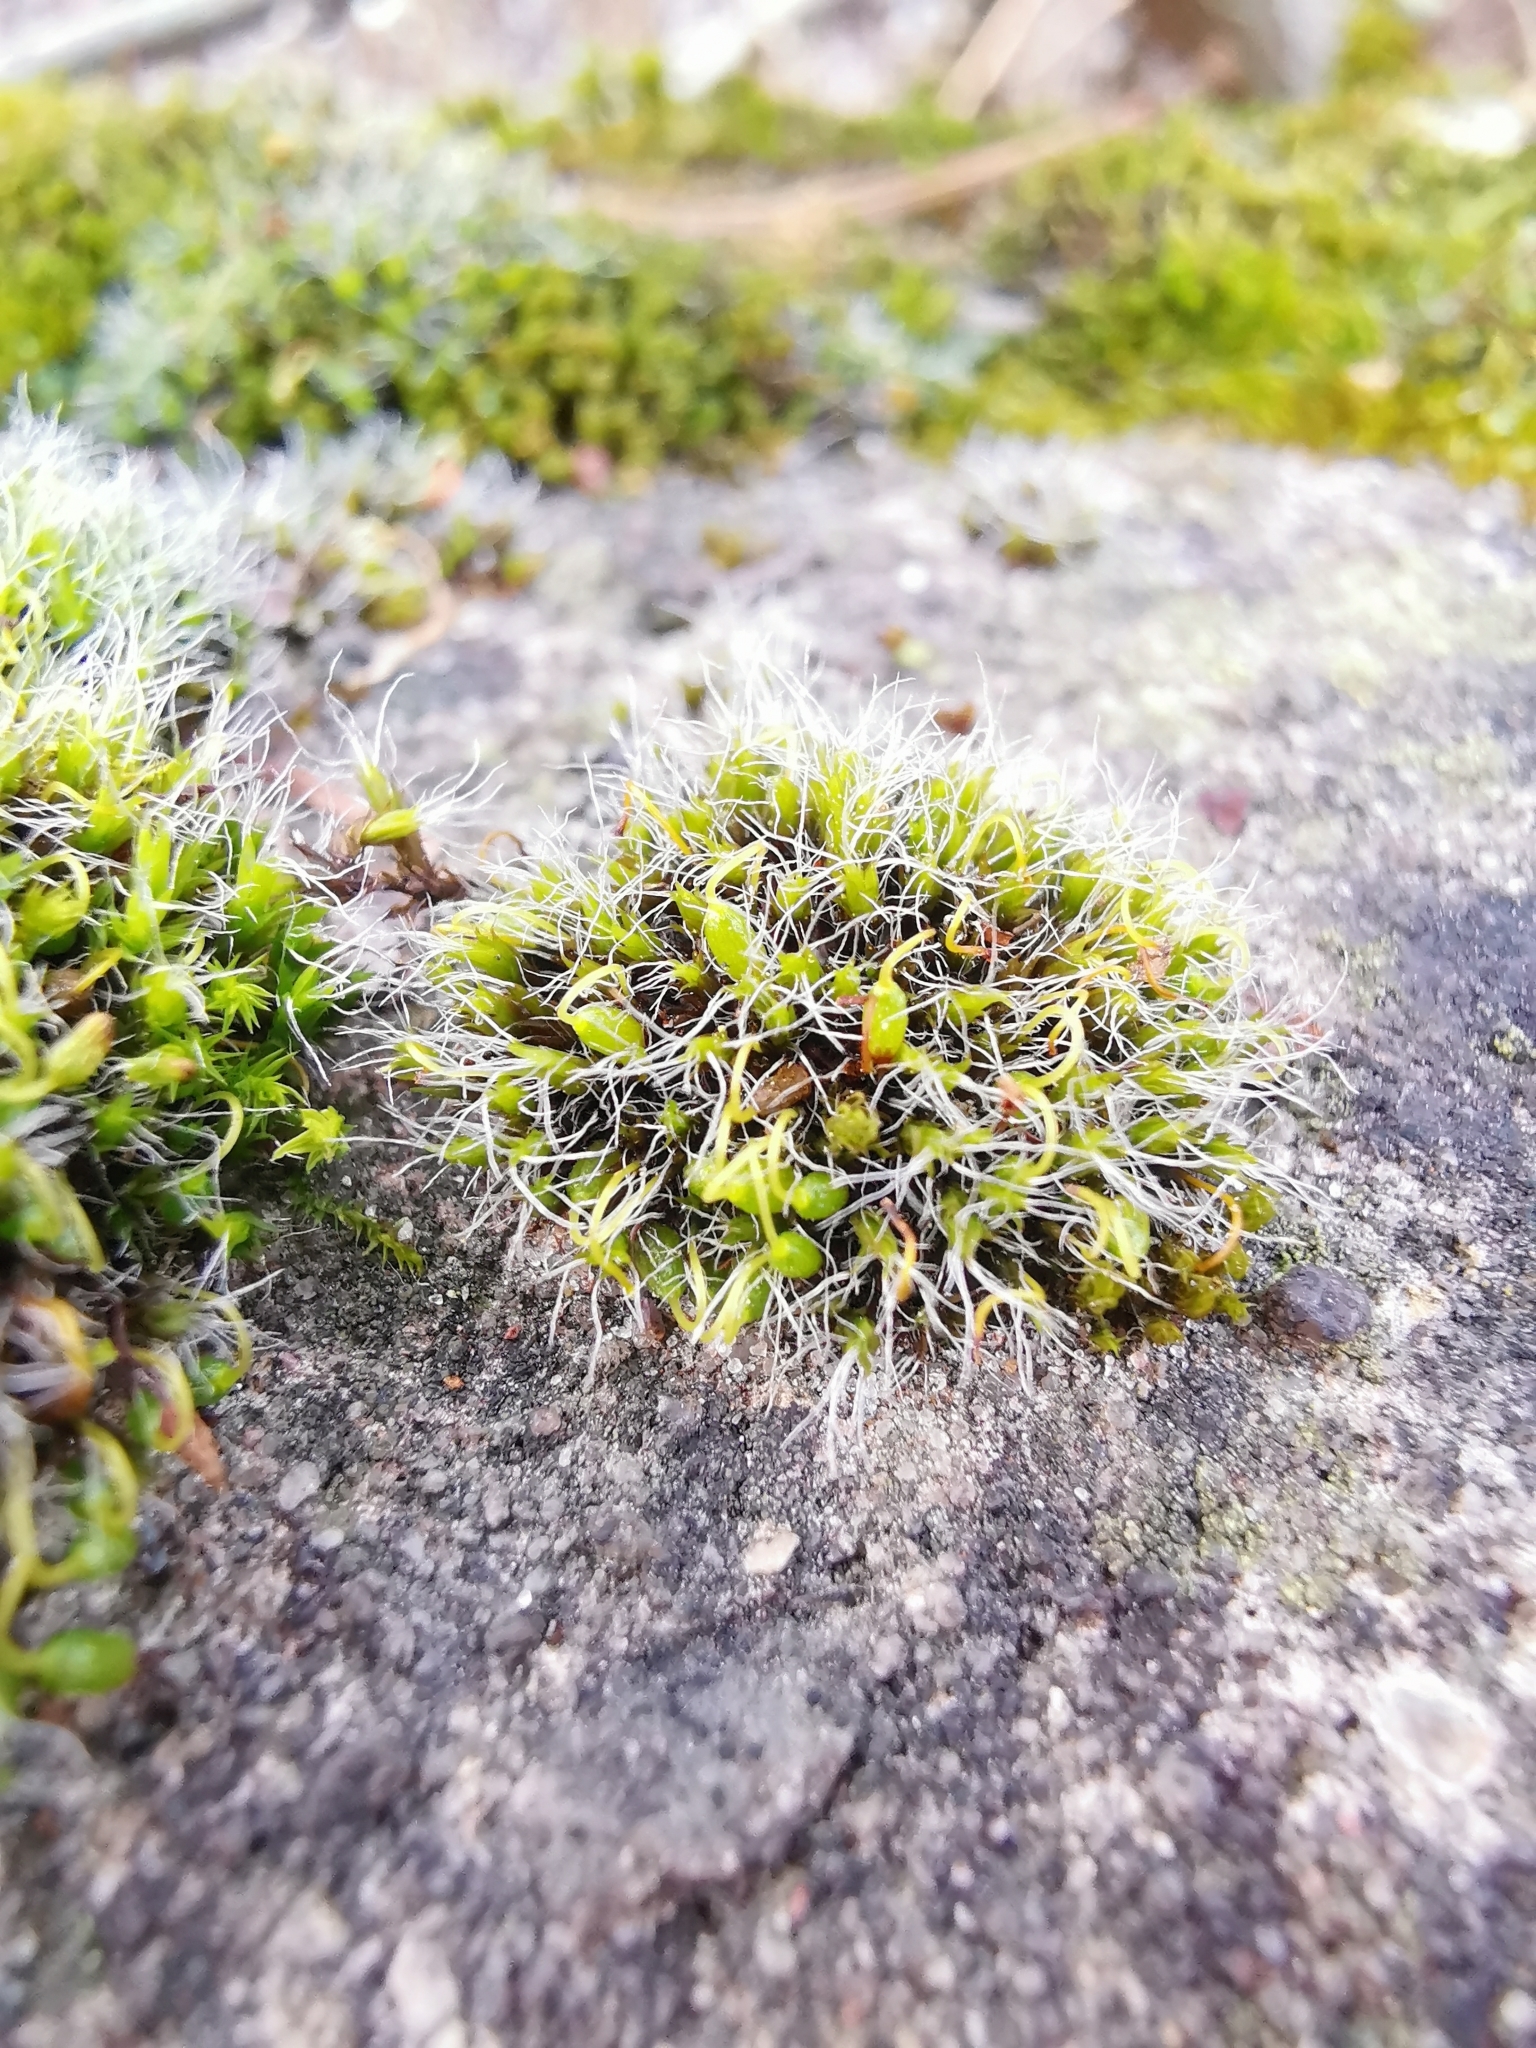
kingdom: Plantae
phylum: Bryophyta
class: Bryopsida
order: Grimmiales
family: Grimmiaceae
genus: Grimmia
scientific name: Grimmia pulvinata
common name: Grey-cushioned grimmia
